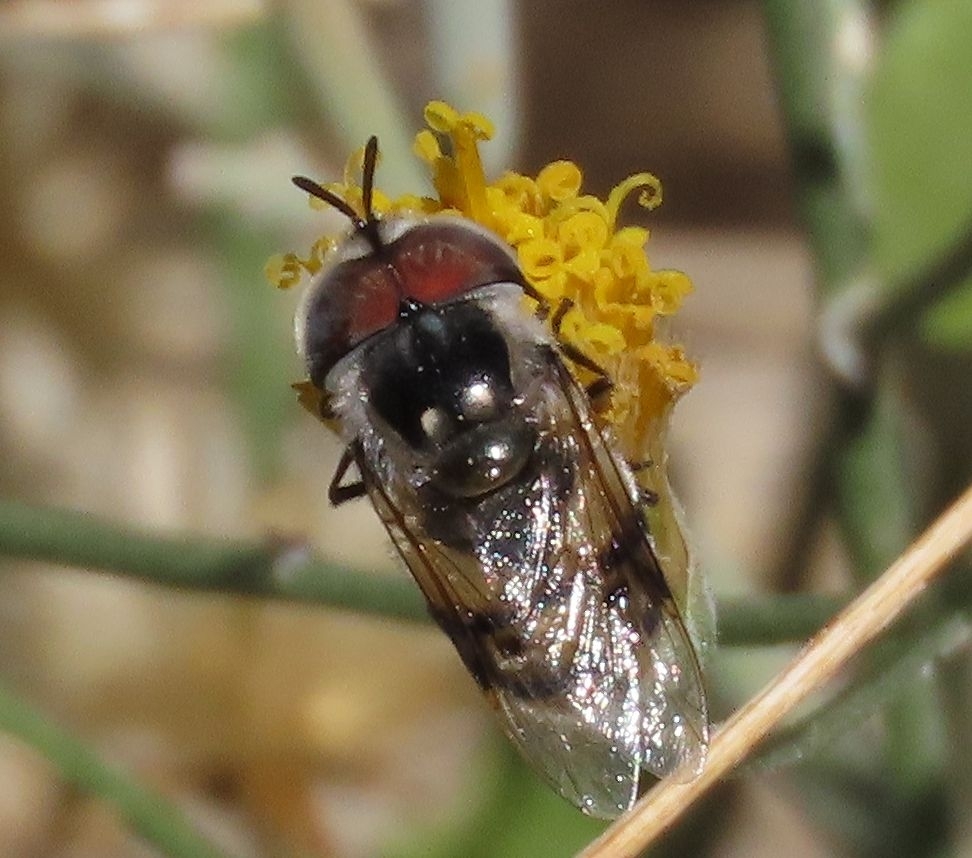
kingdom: Animalia
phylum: Arthropoda
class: Insecta
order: Diptera
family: Syrphidae
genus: Copestylum
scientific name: Copestylum fornax
